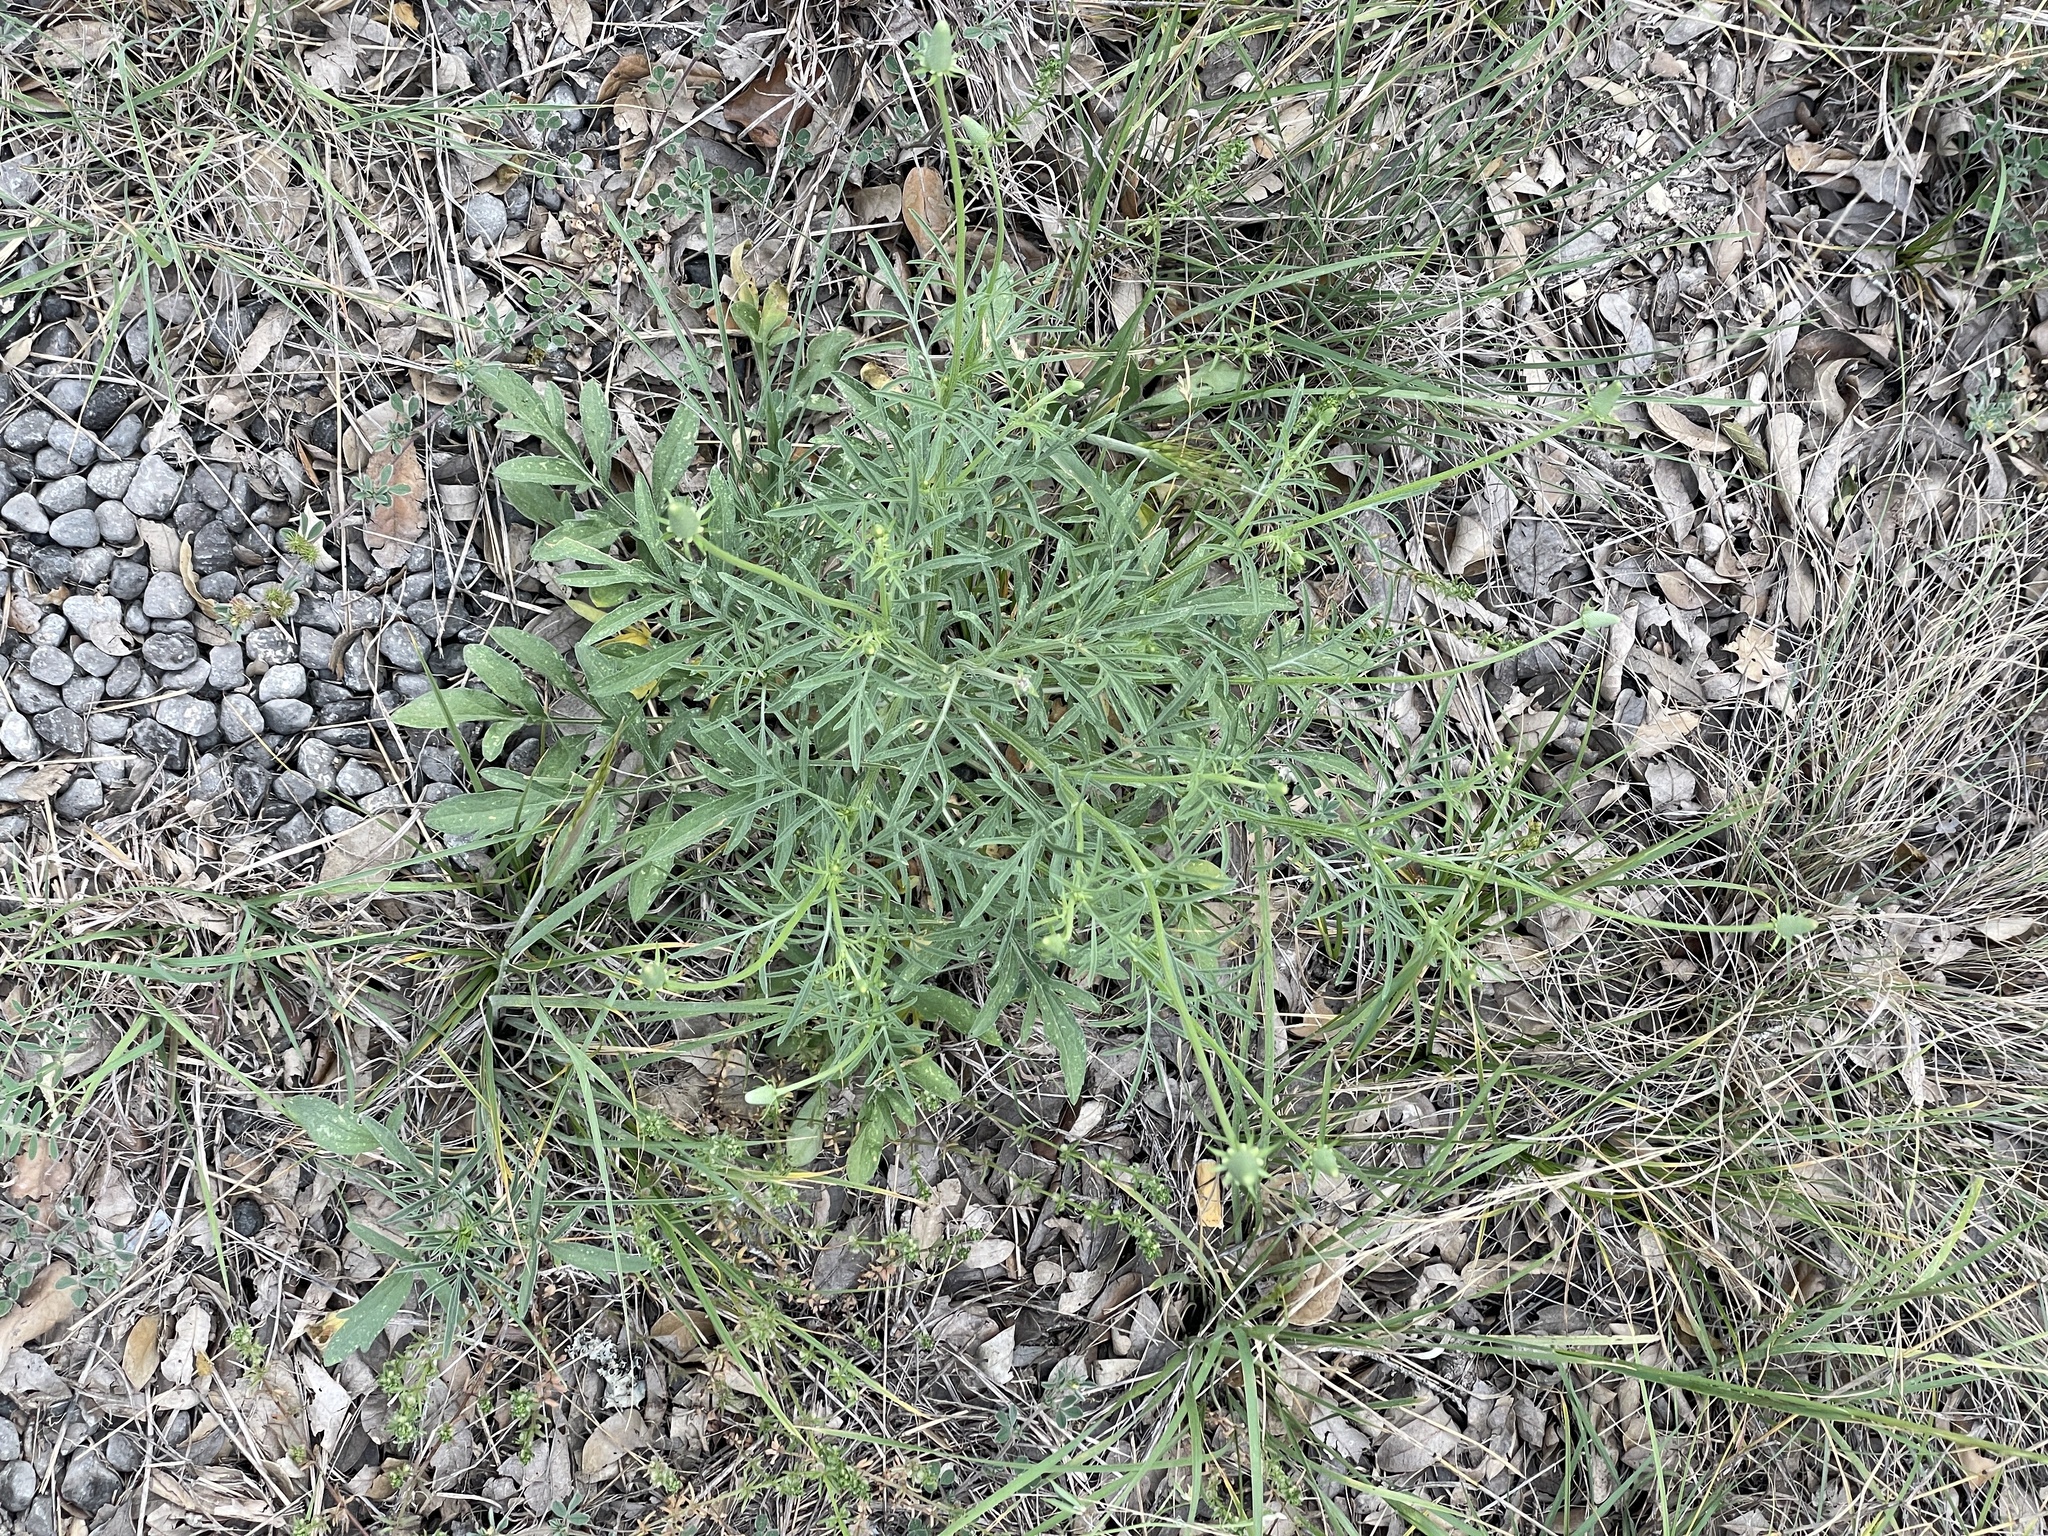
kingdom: Plantae
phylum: Tracheophyta
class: Magnoliopsida
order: Asterales
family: Asteraceae
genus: Ratibida
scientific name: Ratibida columnifera
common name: Prairie coneflower
